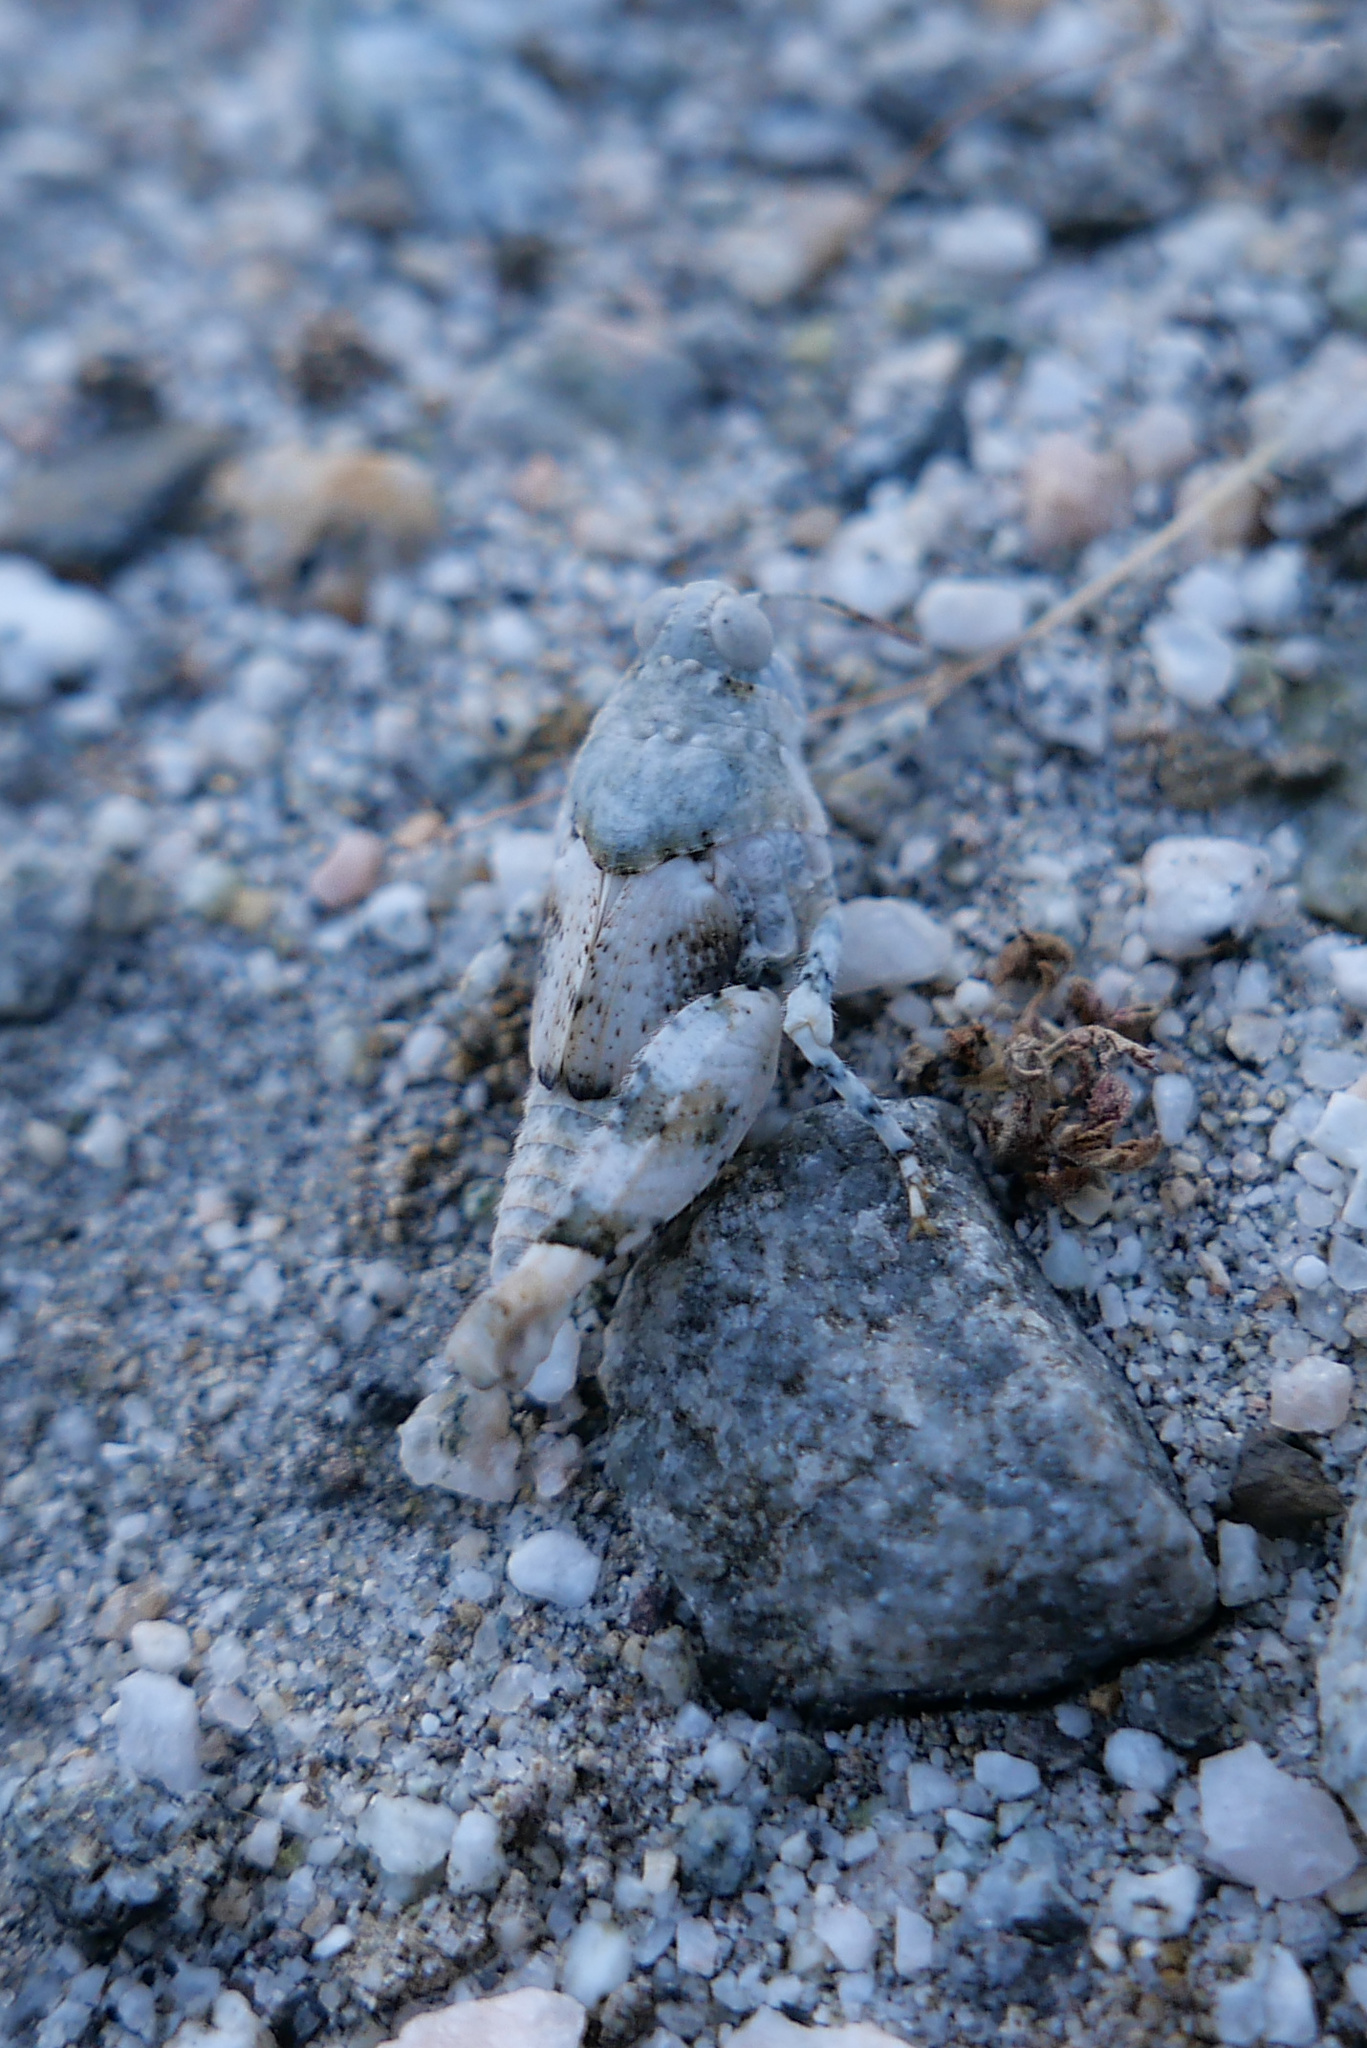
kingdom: Animalia
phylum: Arthropoda
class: Insecta
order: Orthoptera
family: Acrididae
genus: Cibolacris
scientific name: Cibolacris parviceps
